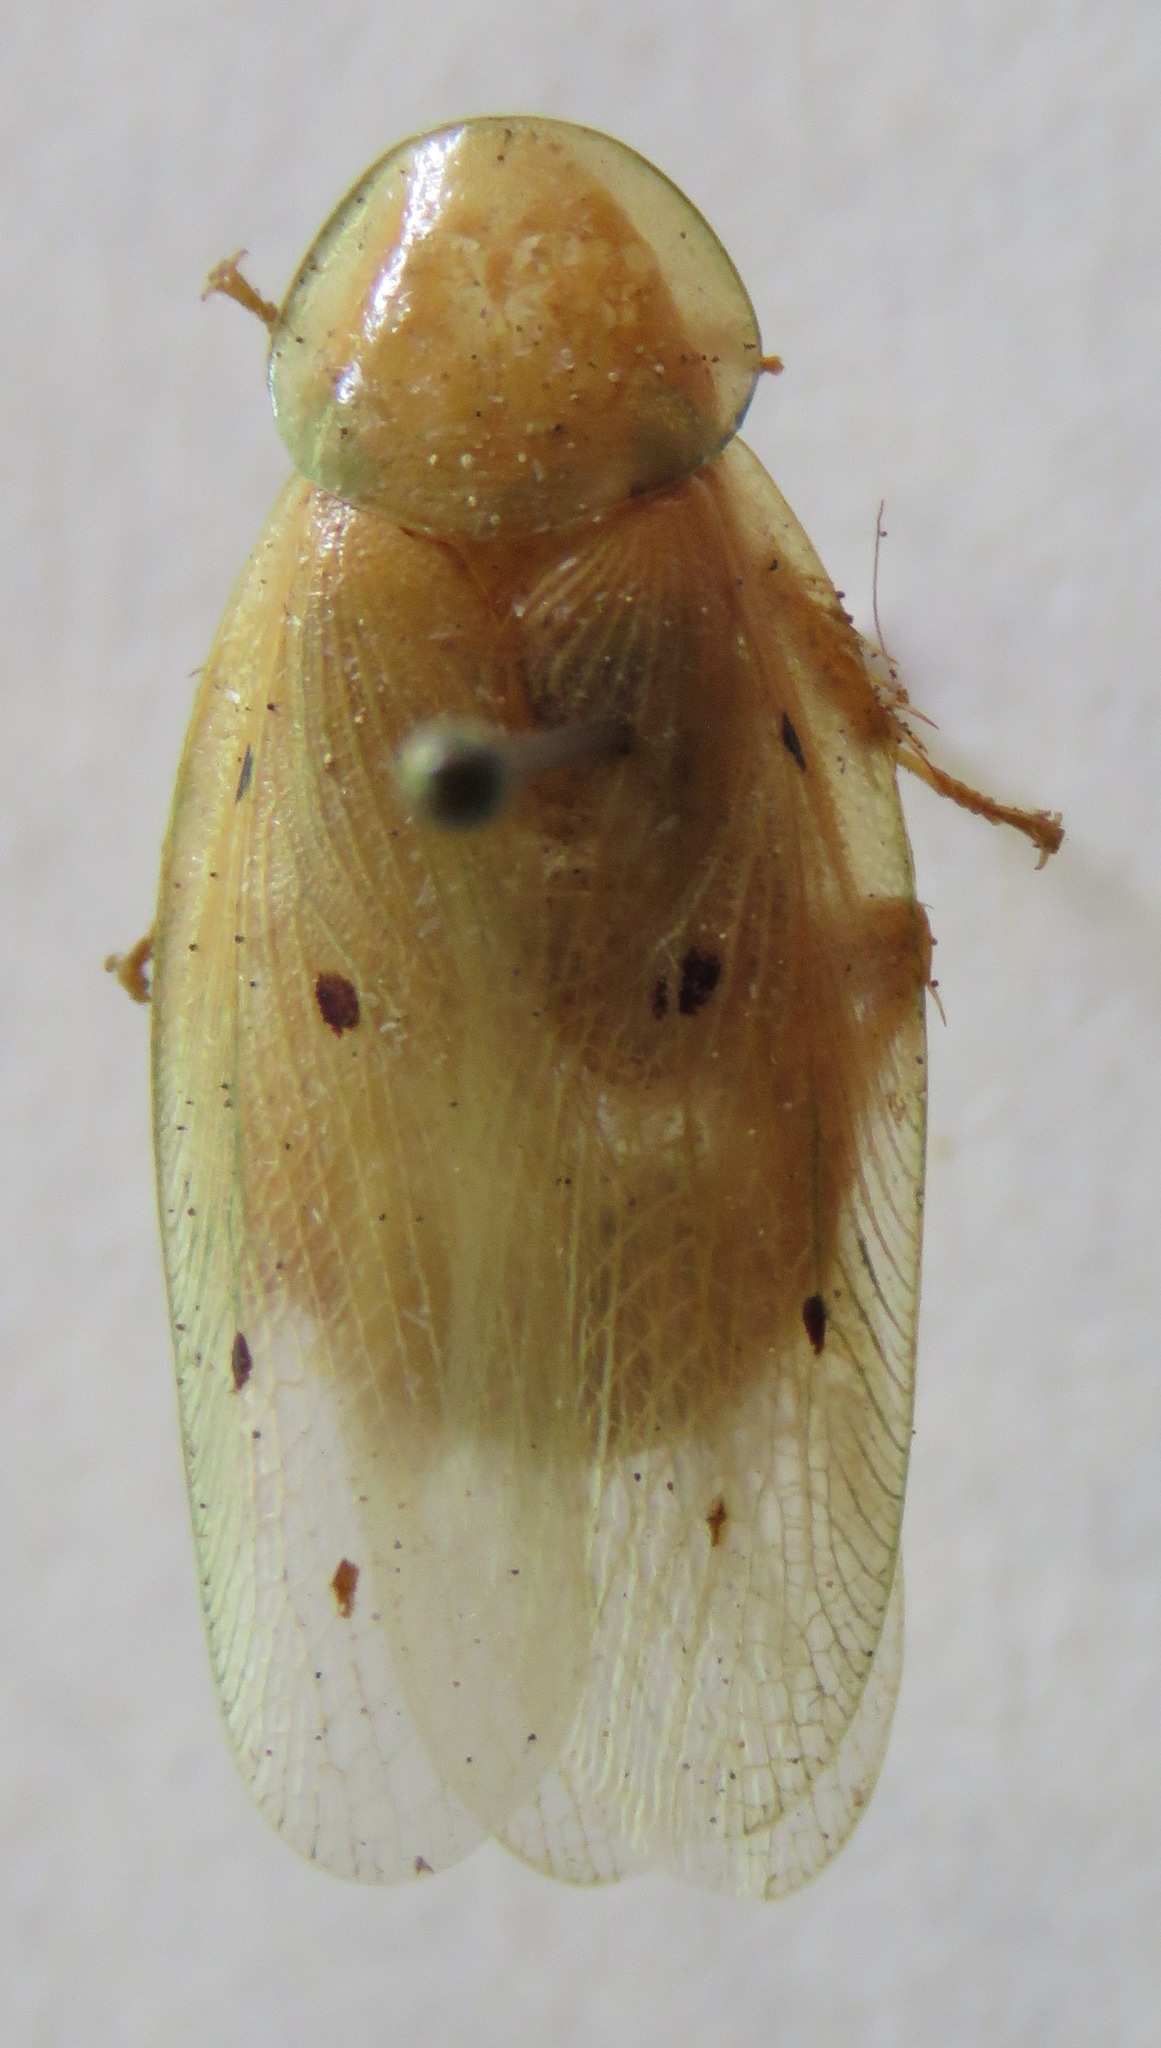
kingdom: Animalia
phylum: Arthropoda
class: Insecta
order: Blattodea
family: Blaberidae
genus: Panchlora
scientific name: Panchlora fraterna
